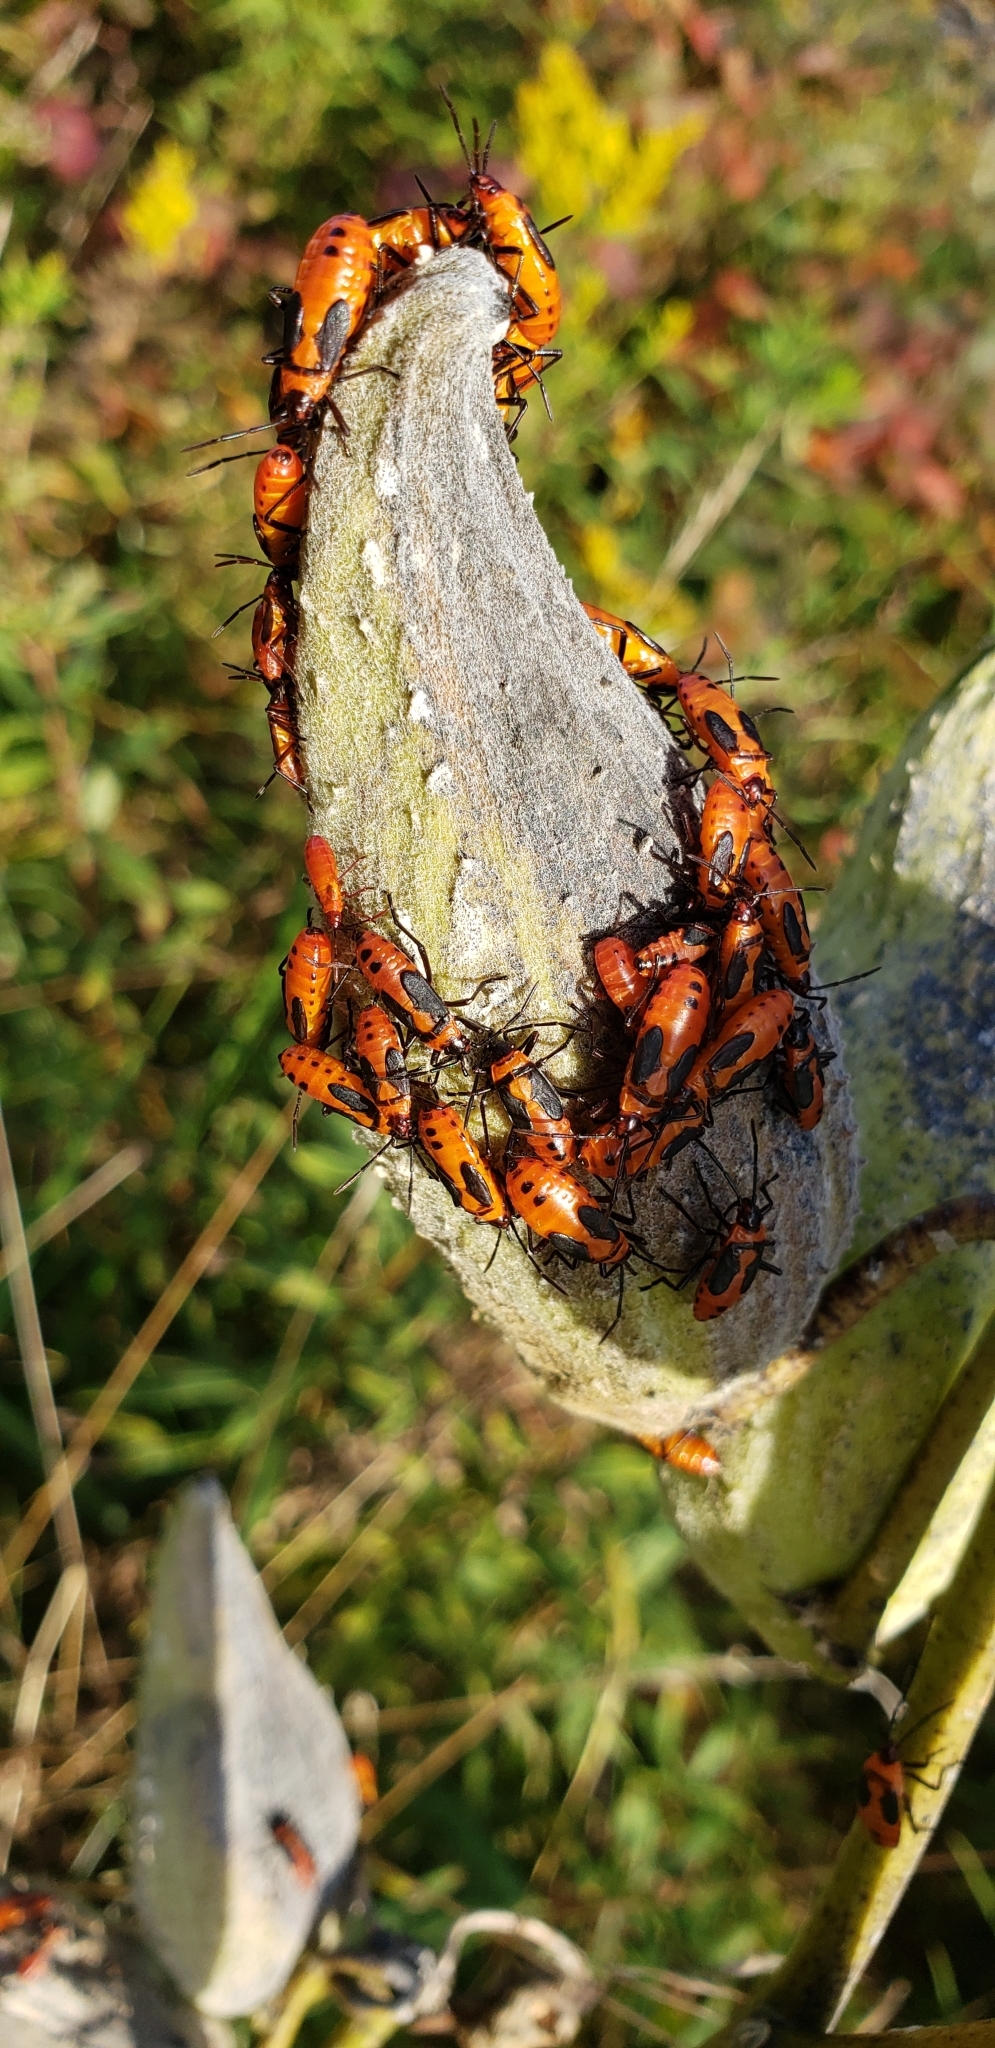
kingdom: Animalia
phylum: Arthropoda
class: Insecta
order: Hemiptera
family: Lygaeidae
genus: Oncopeltus
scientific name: Oncopeltus fasciatus
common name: Large milkweed bug
